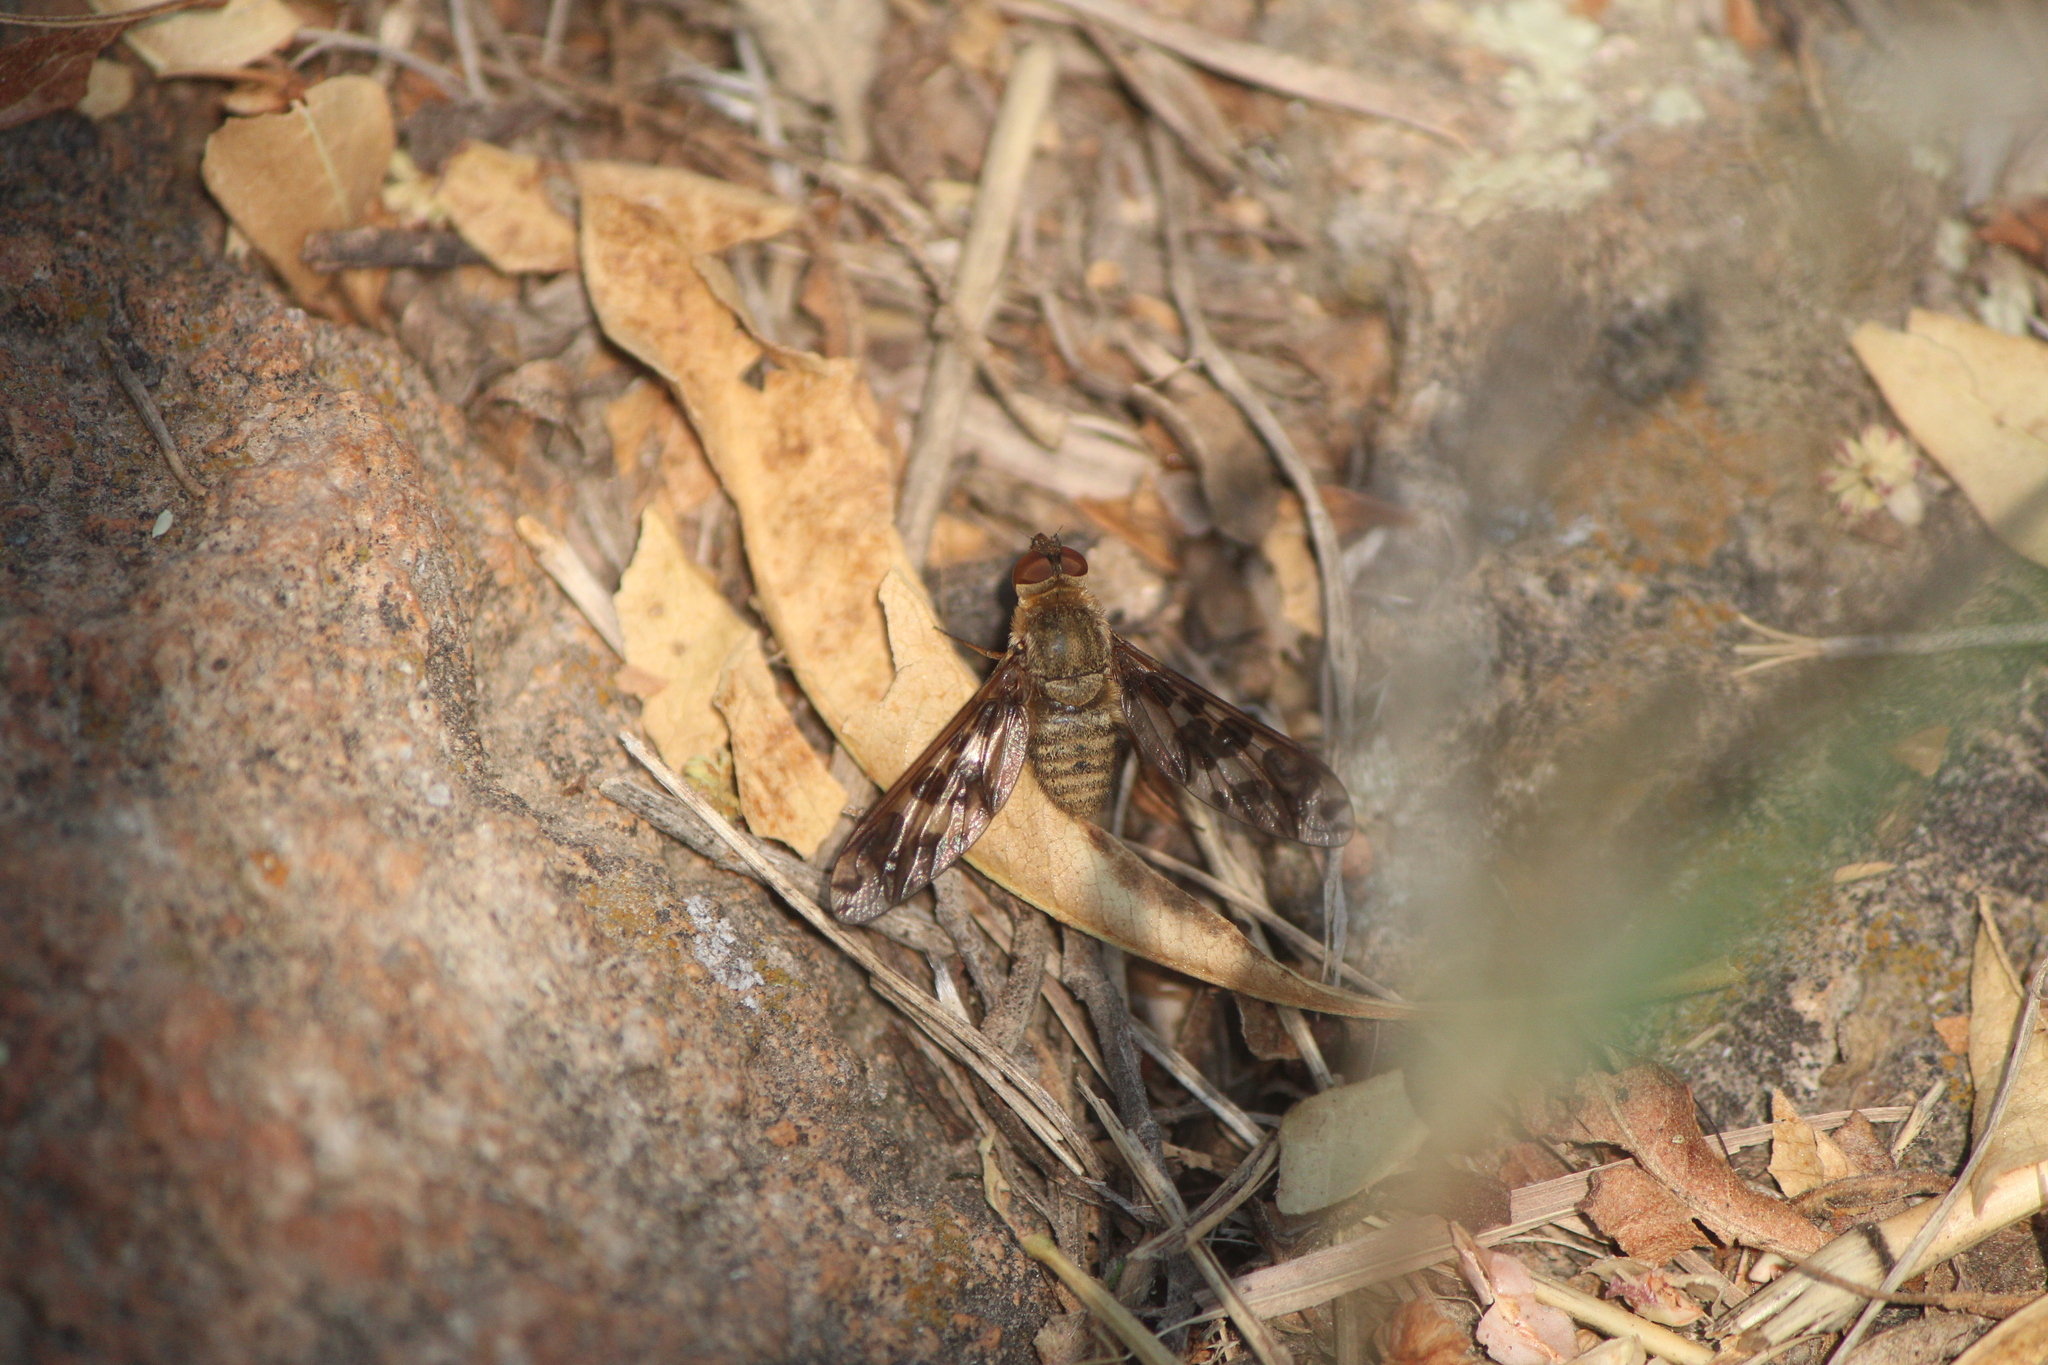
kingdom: Animalia
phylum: Arthropoda
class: Insecta
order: Diptera
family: Bombyliidae
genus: Dipalta
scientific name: Dipalta serpentina
